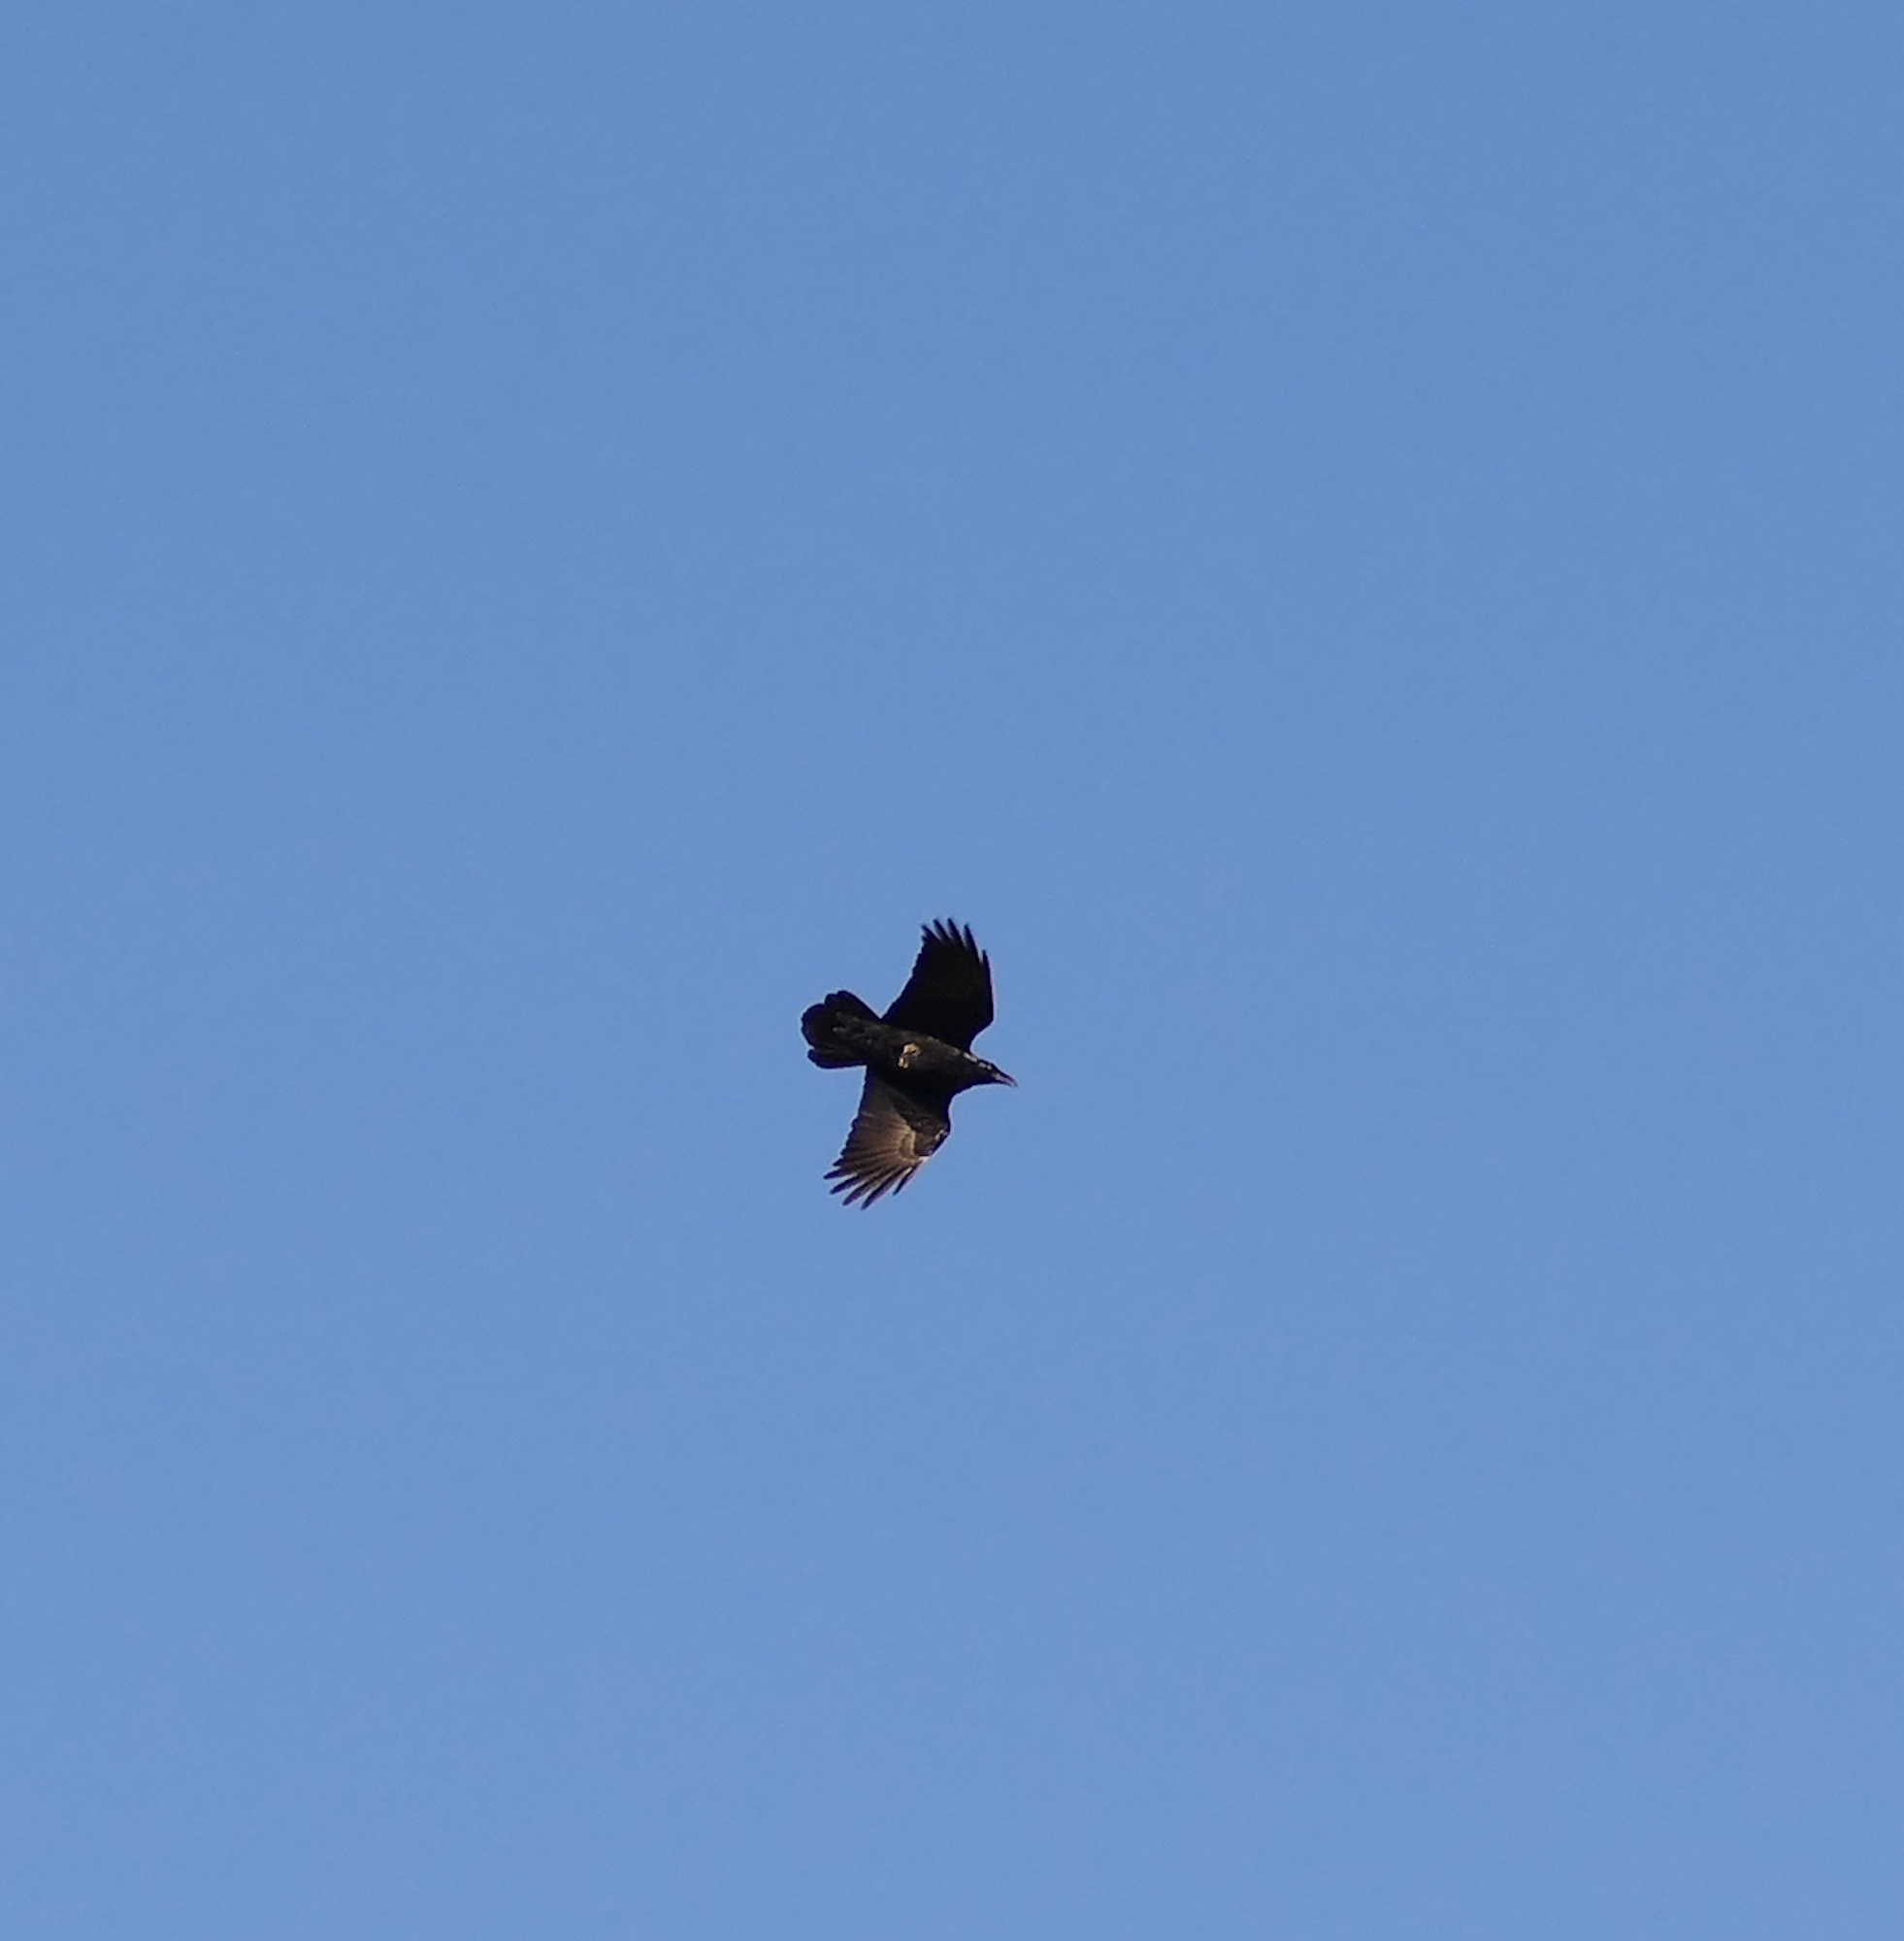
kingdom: Animalia
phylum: Chordata
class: Aves
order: Passeriformes
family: Corvidae
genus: Corvus
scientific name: Corvus corax
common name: Common raven
